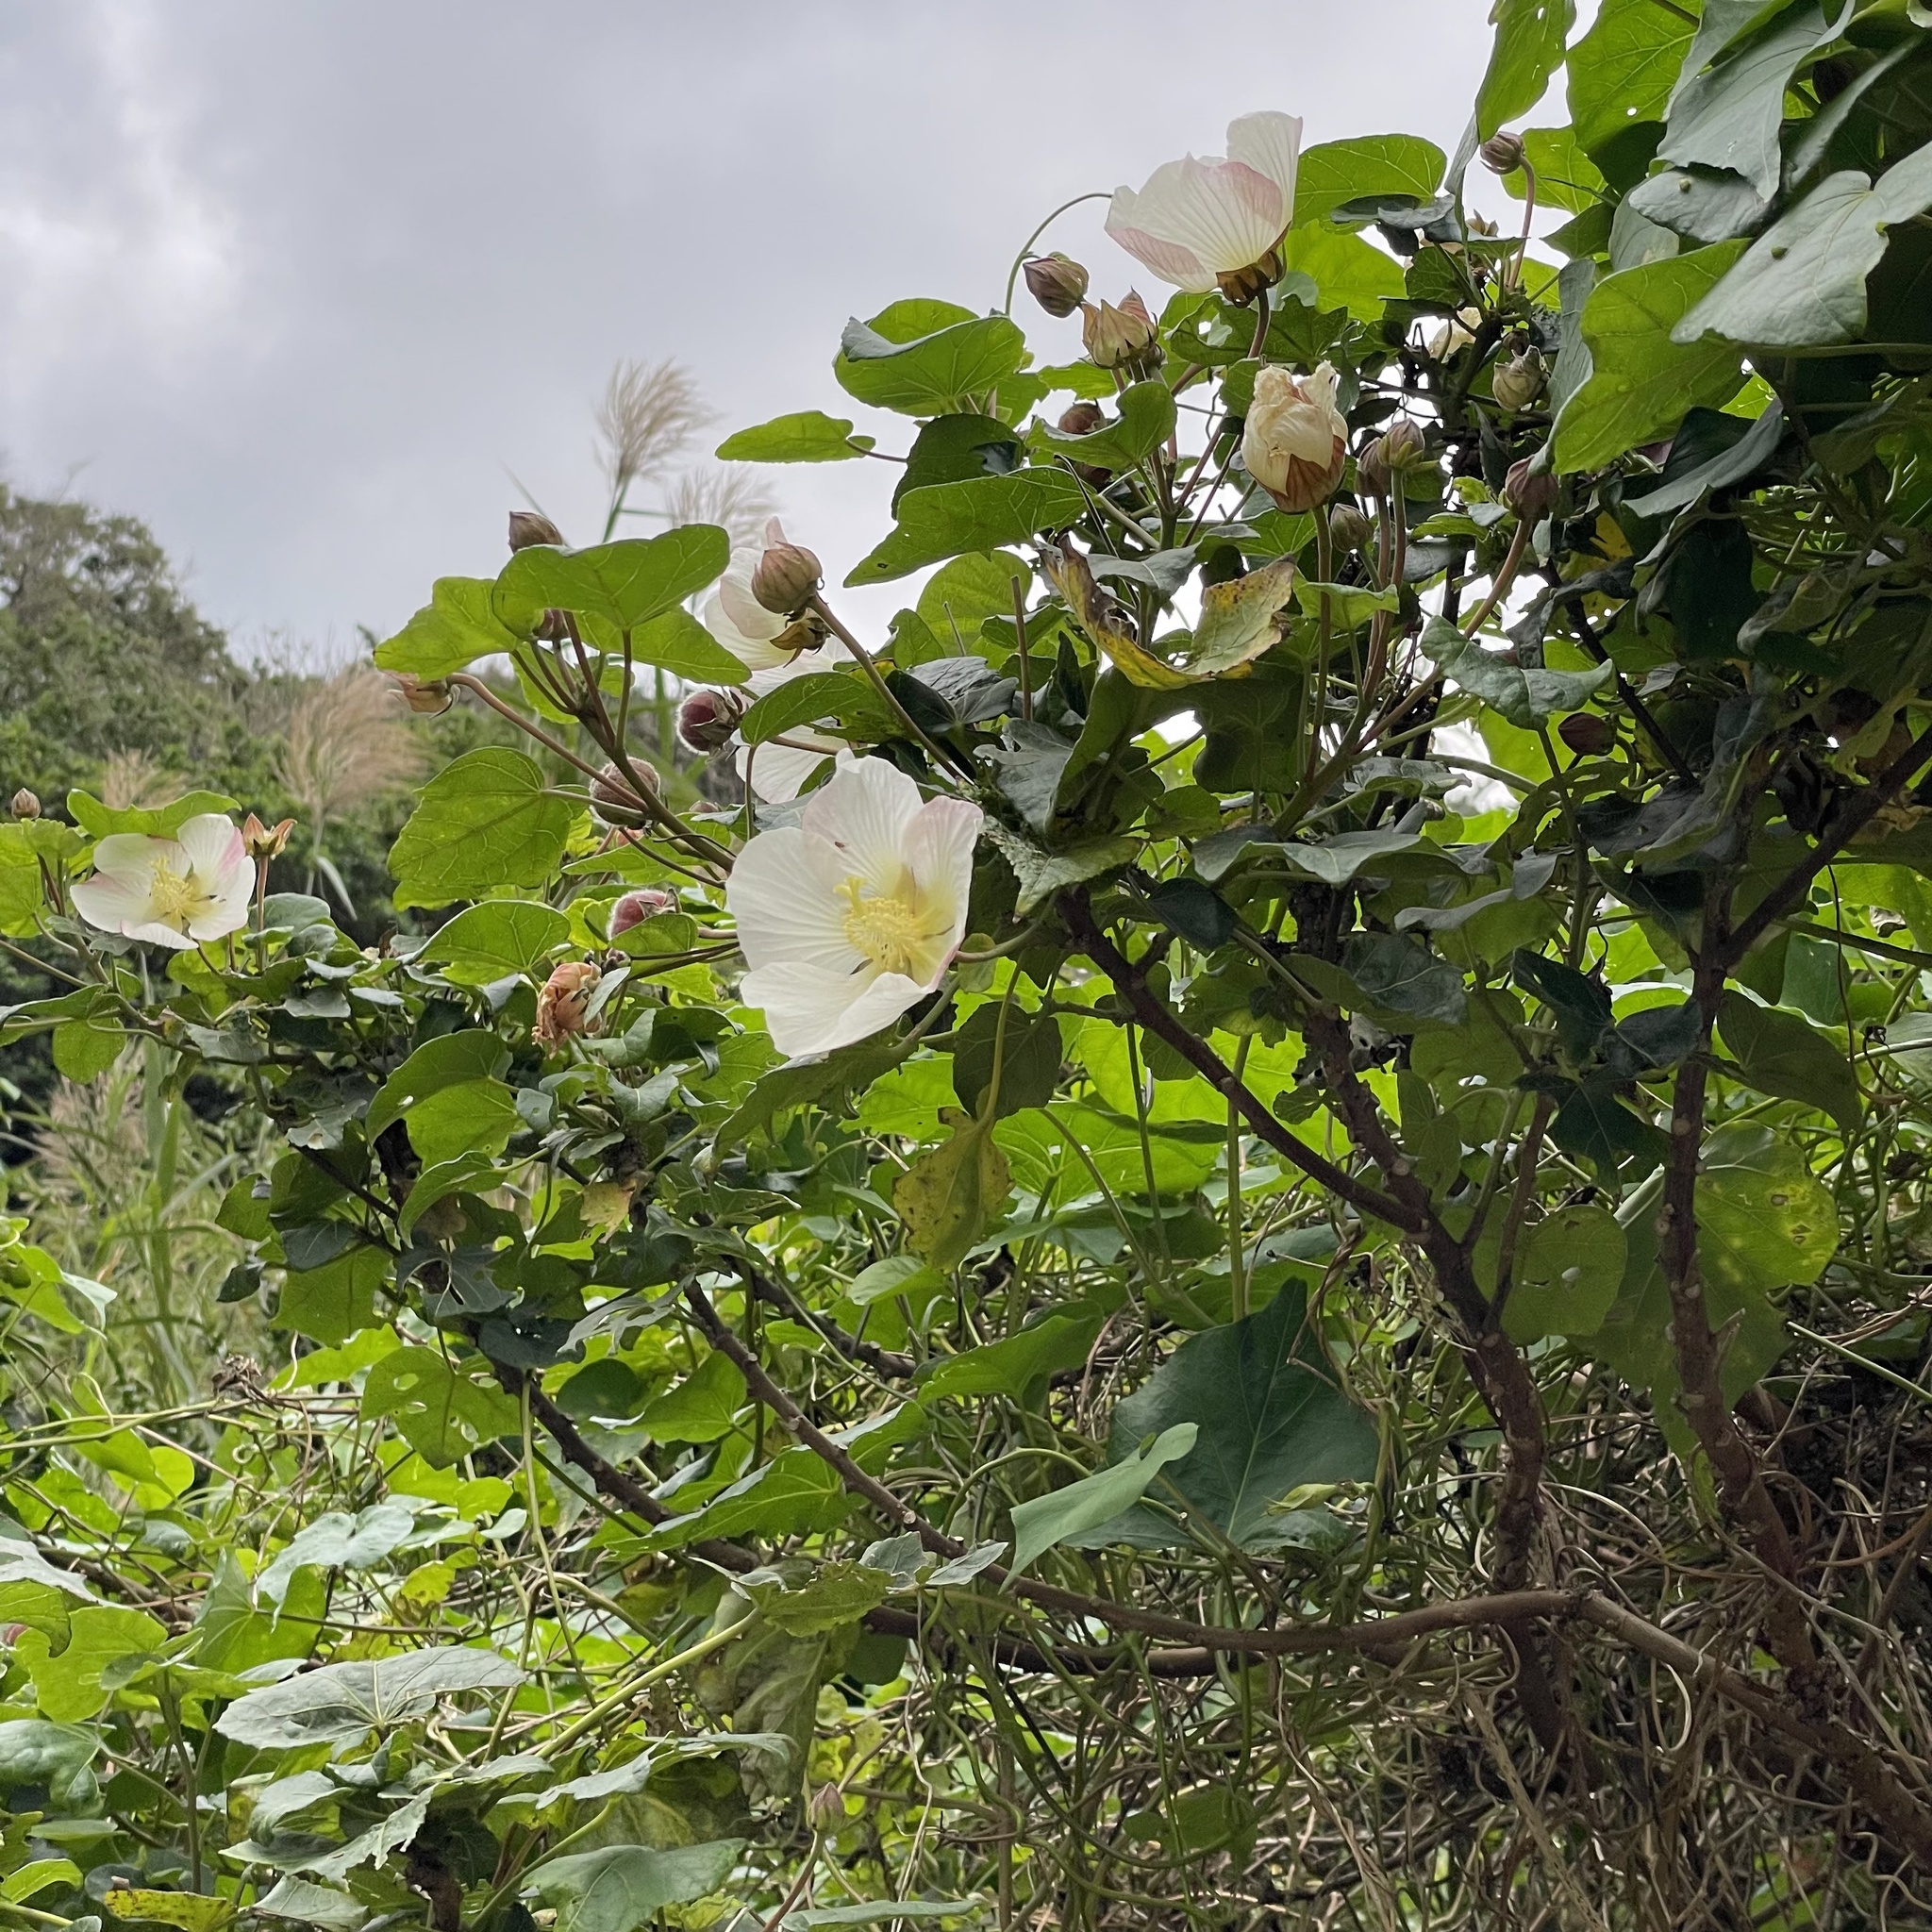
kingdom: Plantae
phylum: Tracheophyta
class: Magnoliopsida
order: Malvales
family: Malvaceae
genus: Hibiscus
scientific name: Hibiscus makinoi
